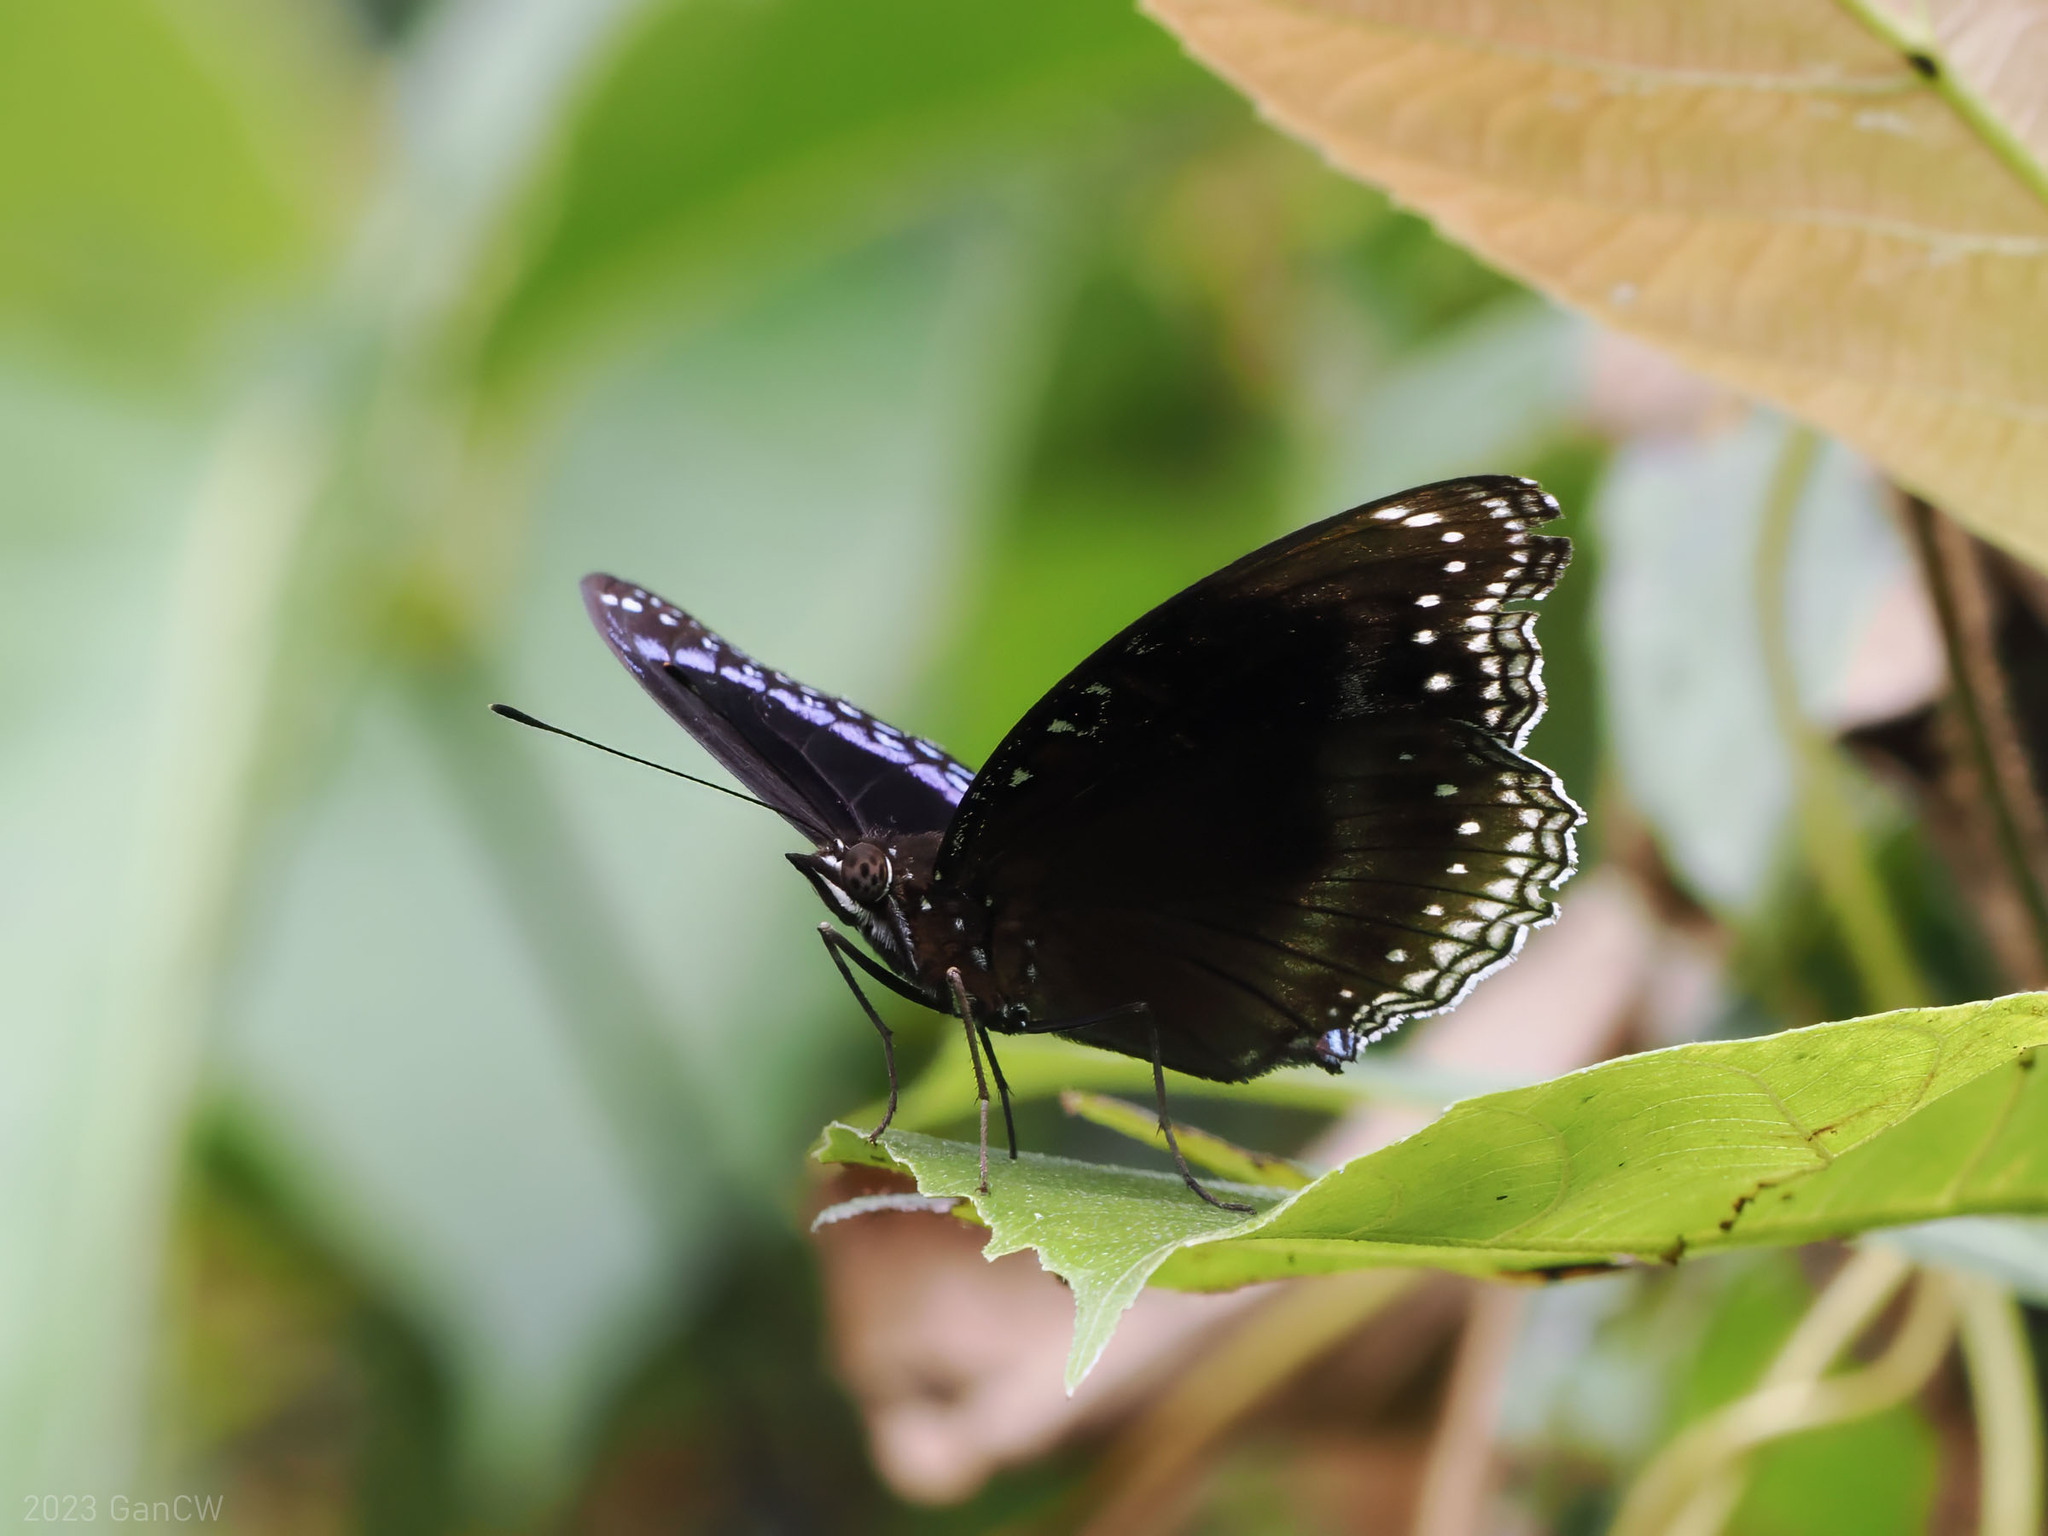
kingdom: Animalia
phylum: Arthropoda
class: Insecta
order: Lepidoptera
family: Nymphalidae
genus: Hypolimnas
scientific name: Hypolimnas alimena
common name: Blue-banded eggfly
